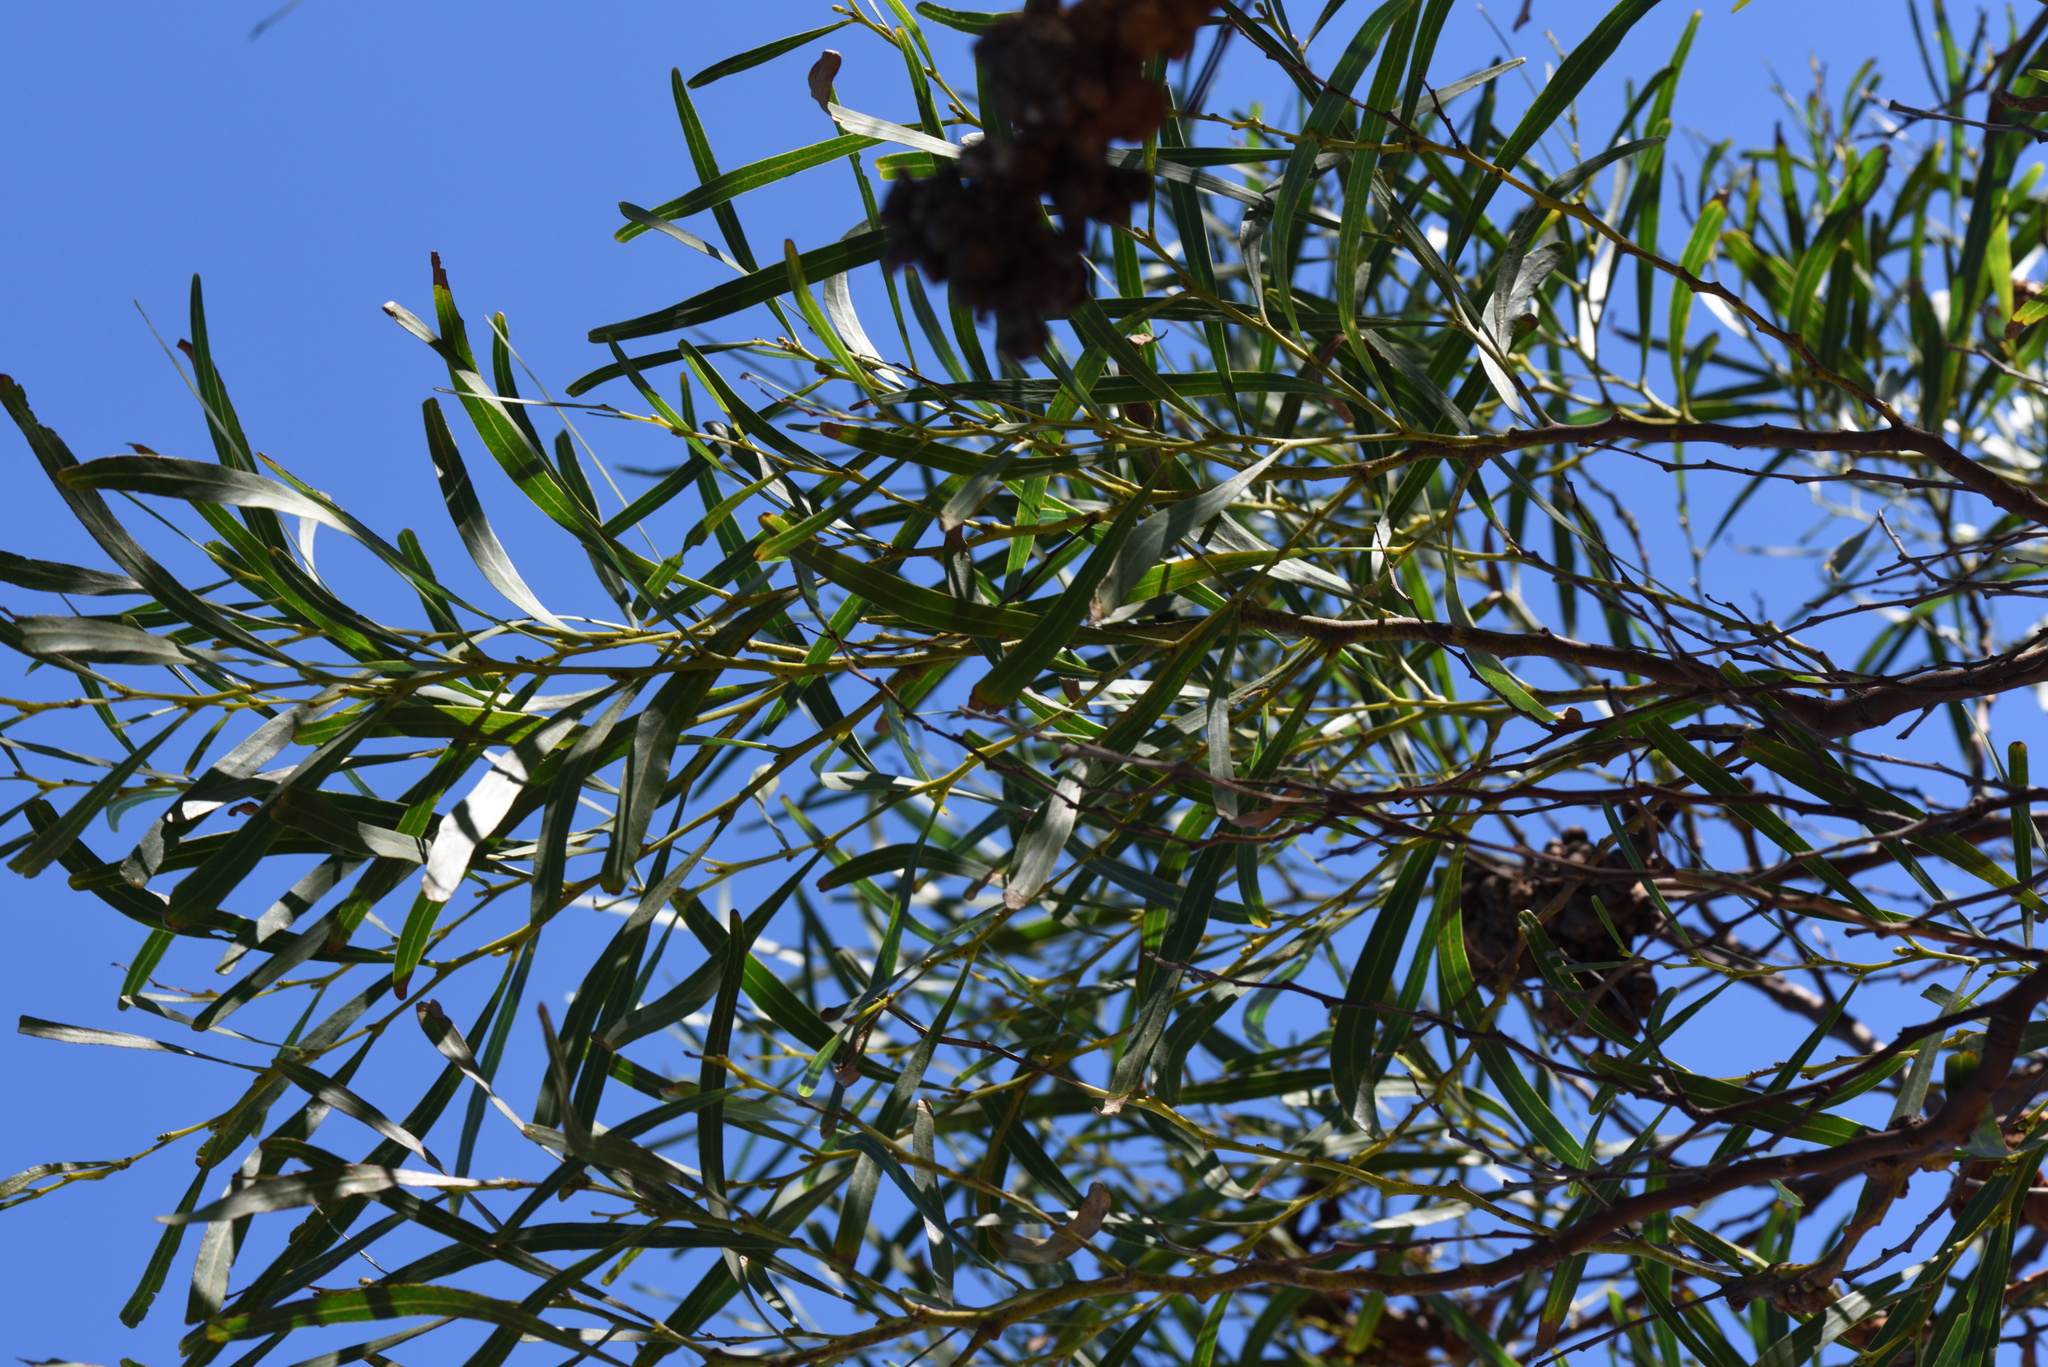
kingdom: Plantae
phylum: Tracheophyta
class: Magnoliopsida
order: Fabales
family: Fabaceae
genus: Acacia
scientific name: Acacia saligna
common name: Orange wattle
